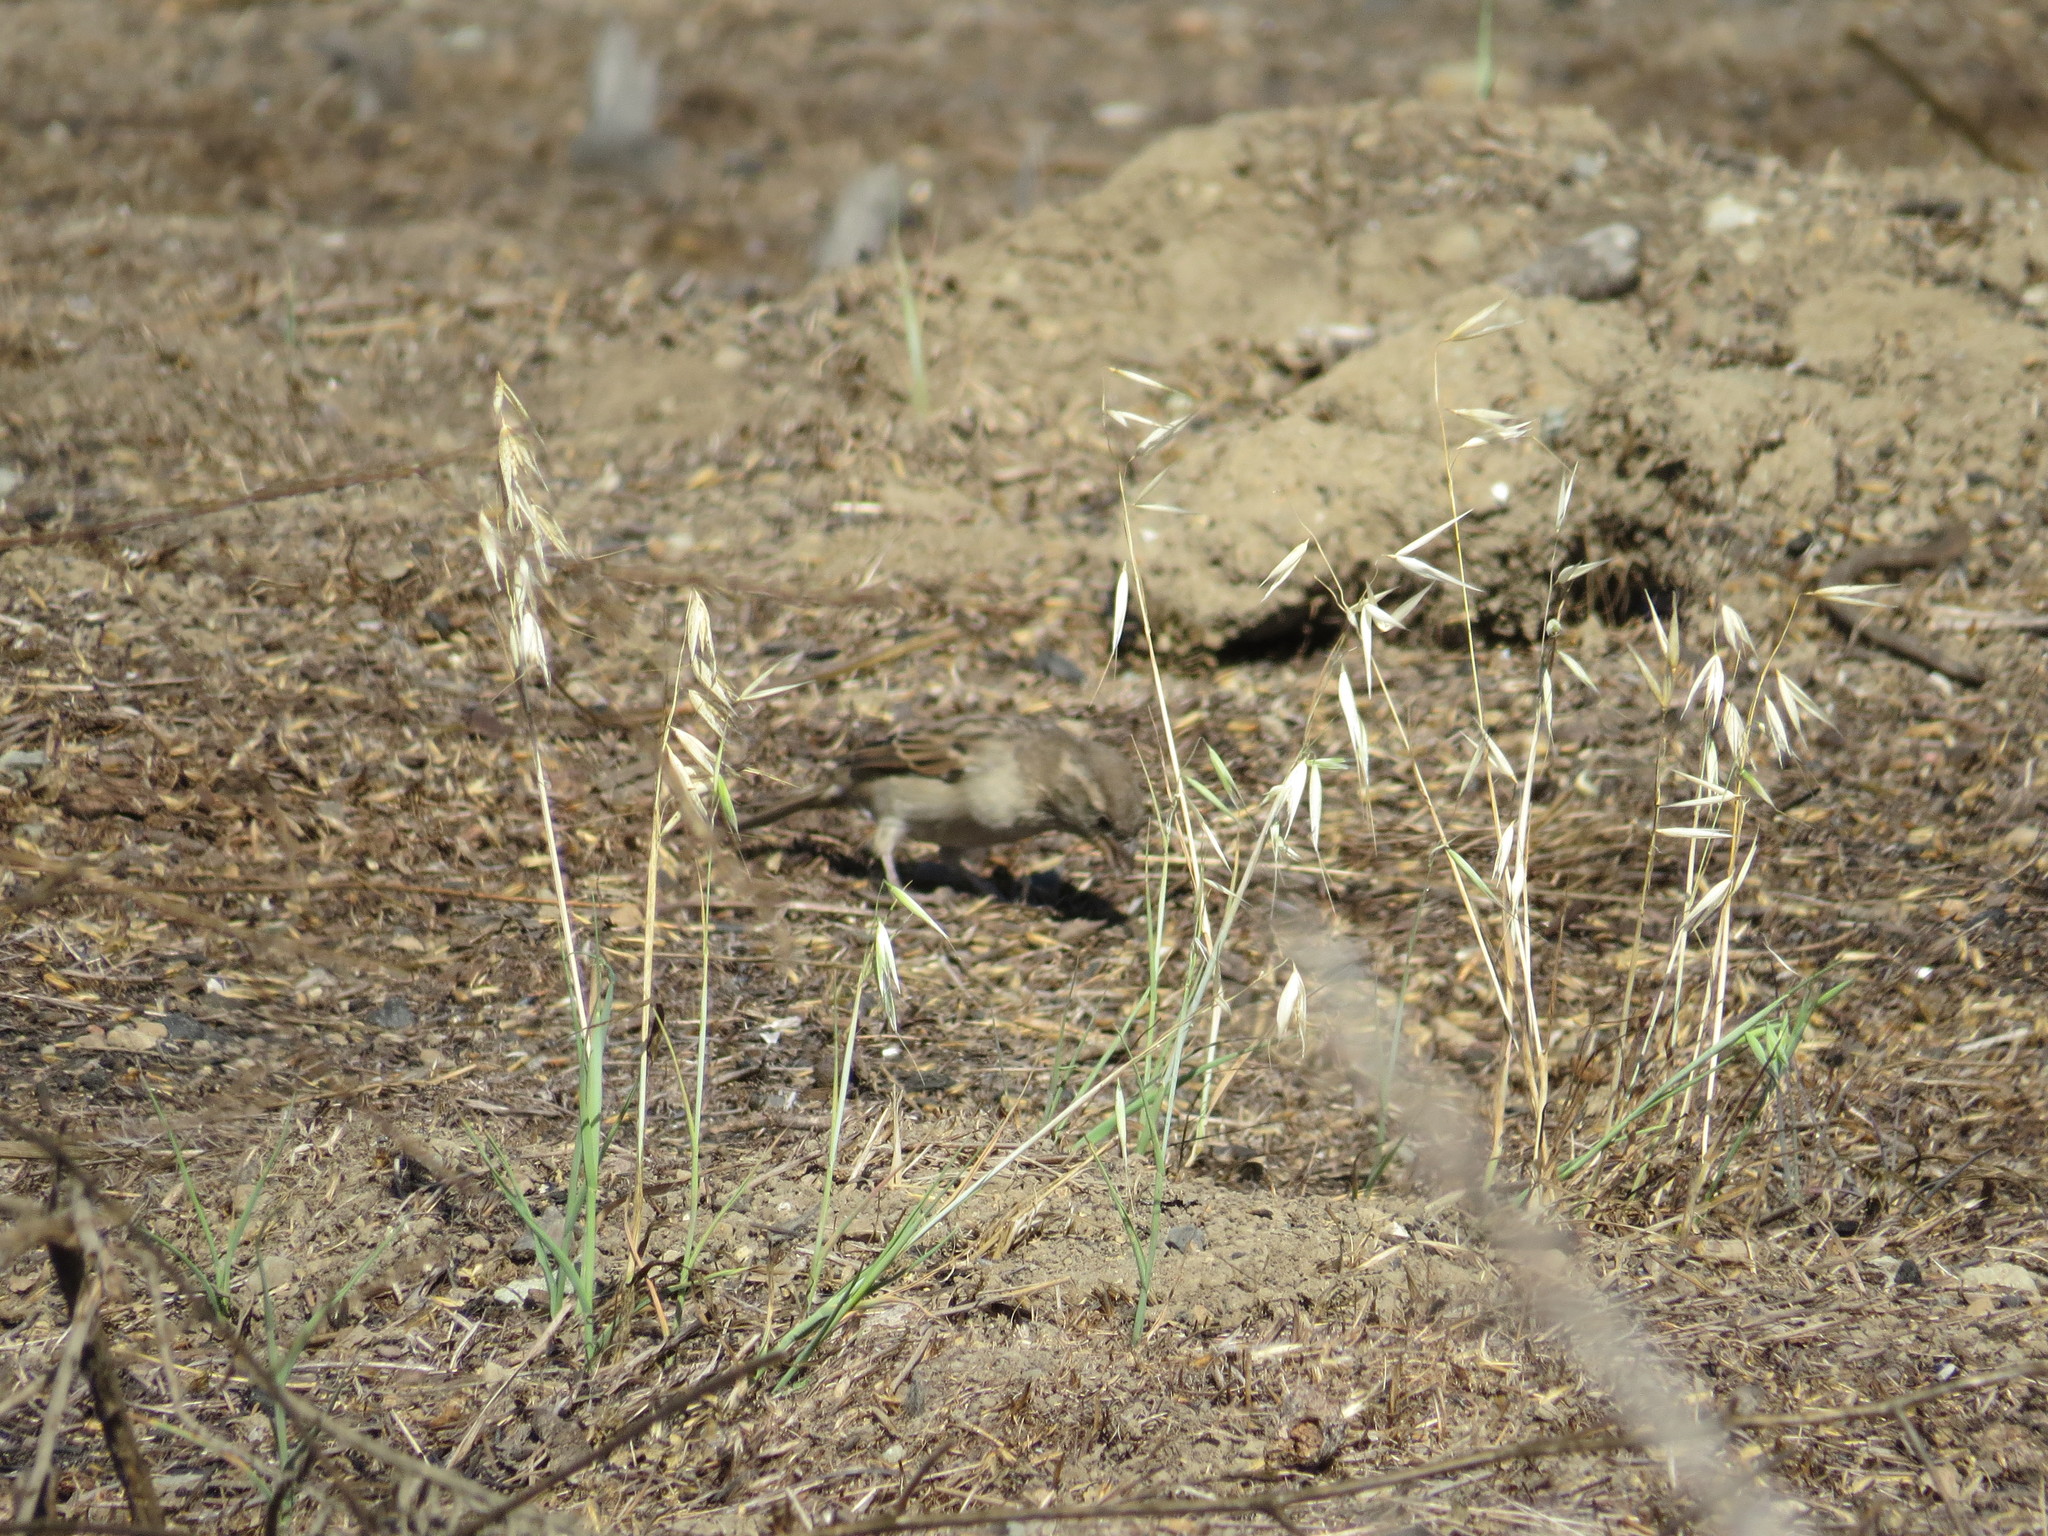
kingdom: Animalia
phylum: Chordata
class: Aves
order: Passeriformes
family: Passeridae
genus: Passer
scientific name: Passer domesticus
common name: House sparrow
